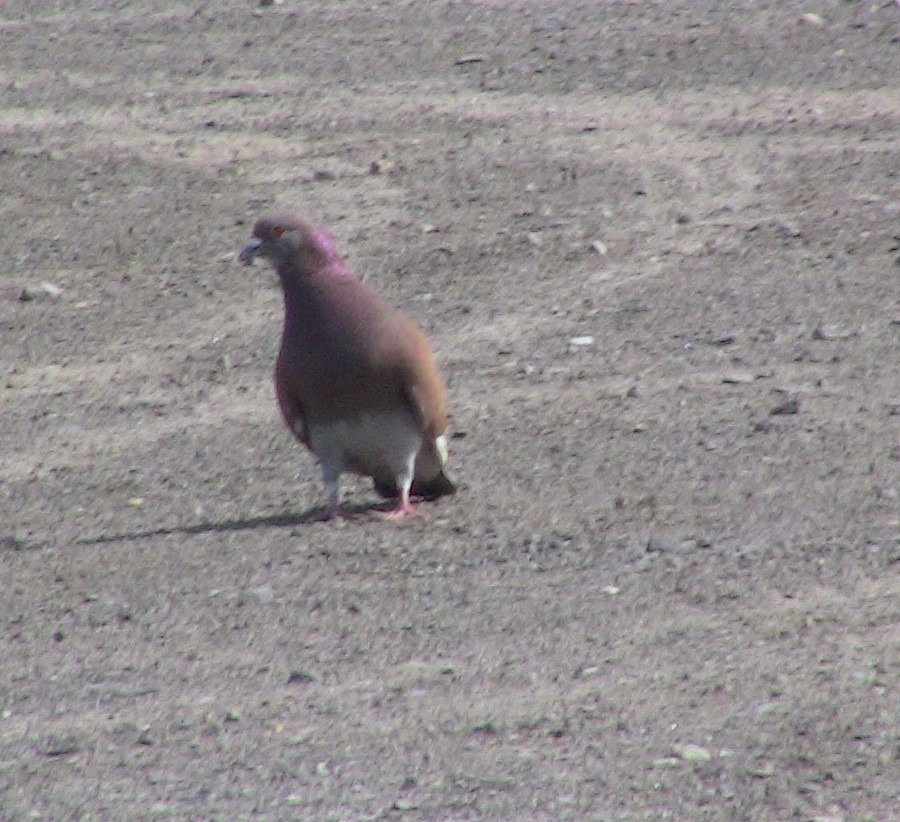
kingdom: Animalia
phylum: Chordata
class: Aves
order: Columbiformes
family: Columbidae
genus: Columba
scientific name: Columba livia
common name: Rock pigeon
